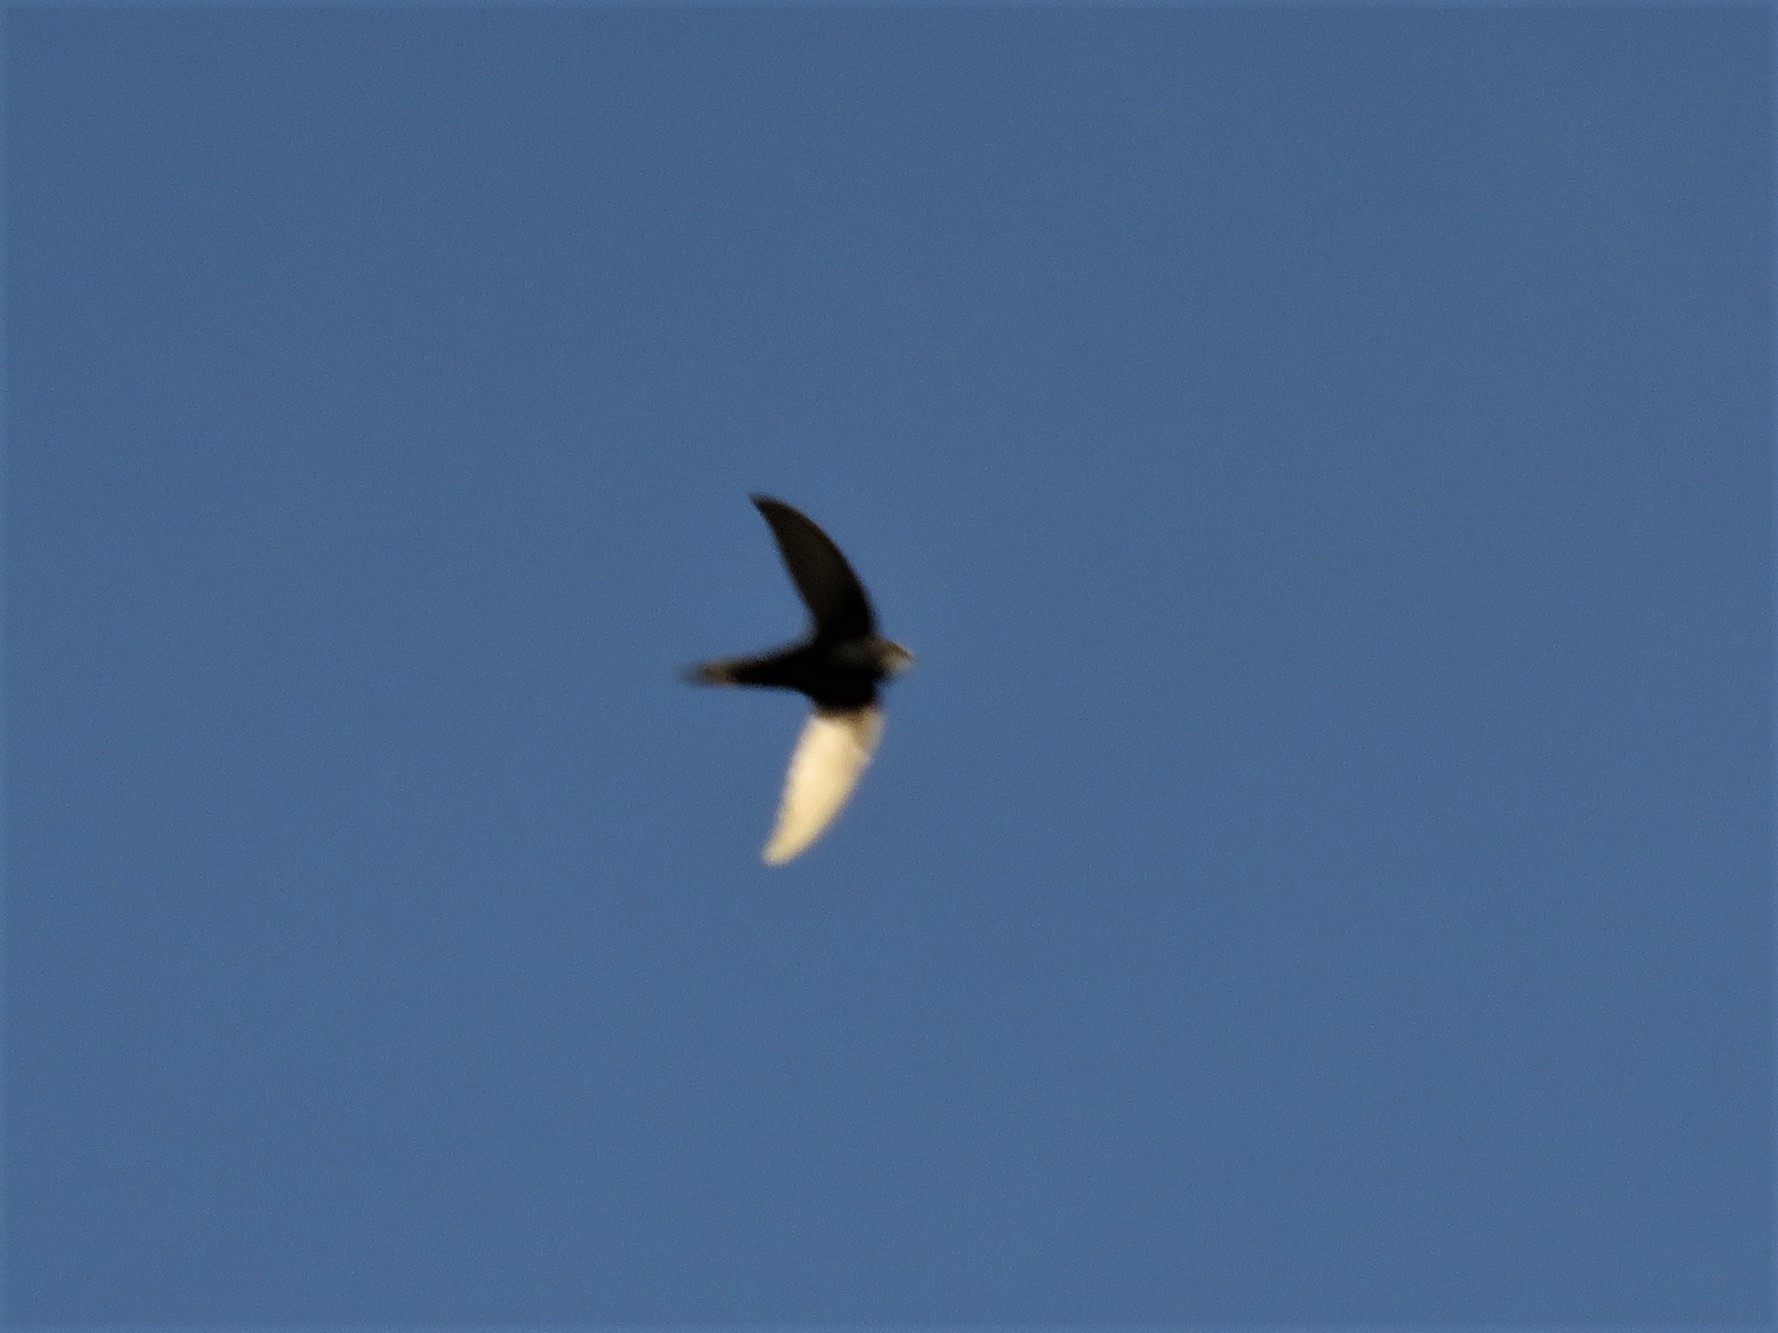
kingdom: Animalia
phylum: Chordata
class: Aves
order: Apodiformes
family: Apodidae
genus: Apus
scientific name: Apus caffer
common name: White-rumped swift
